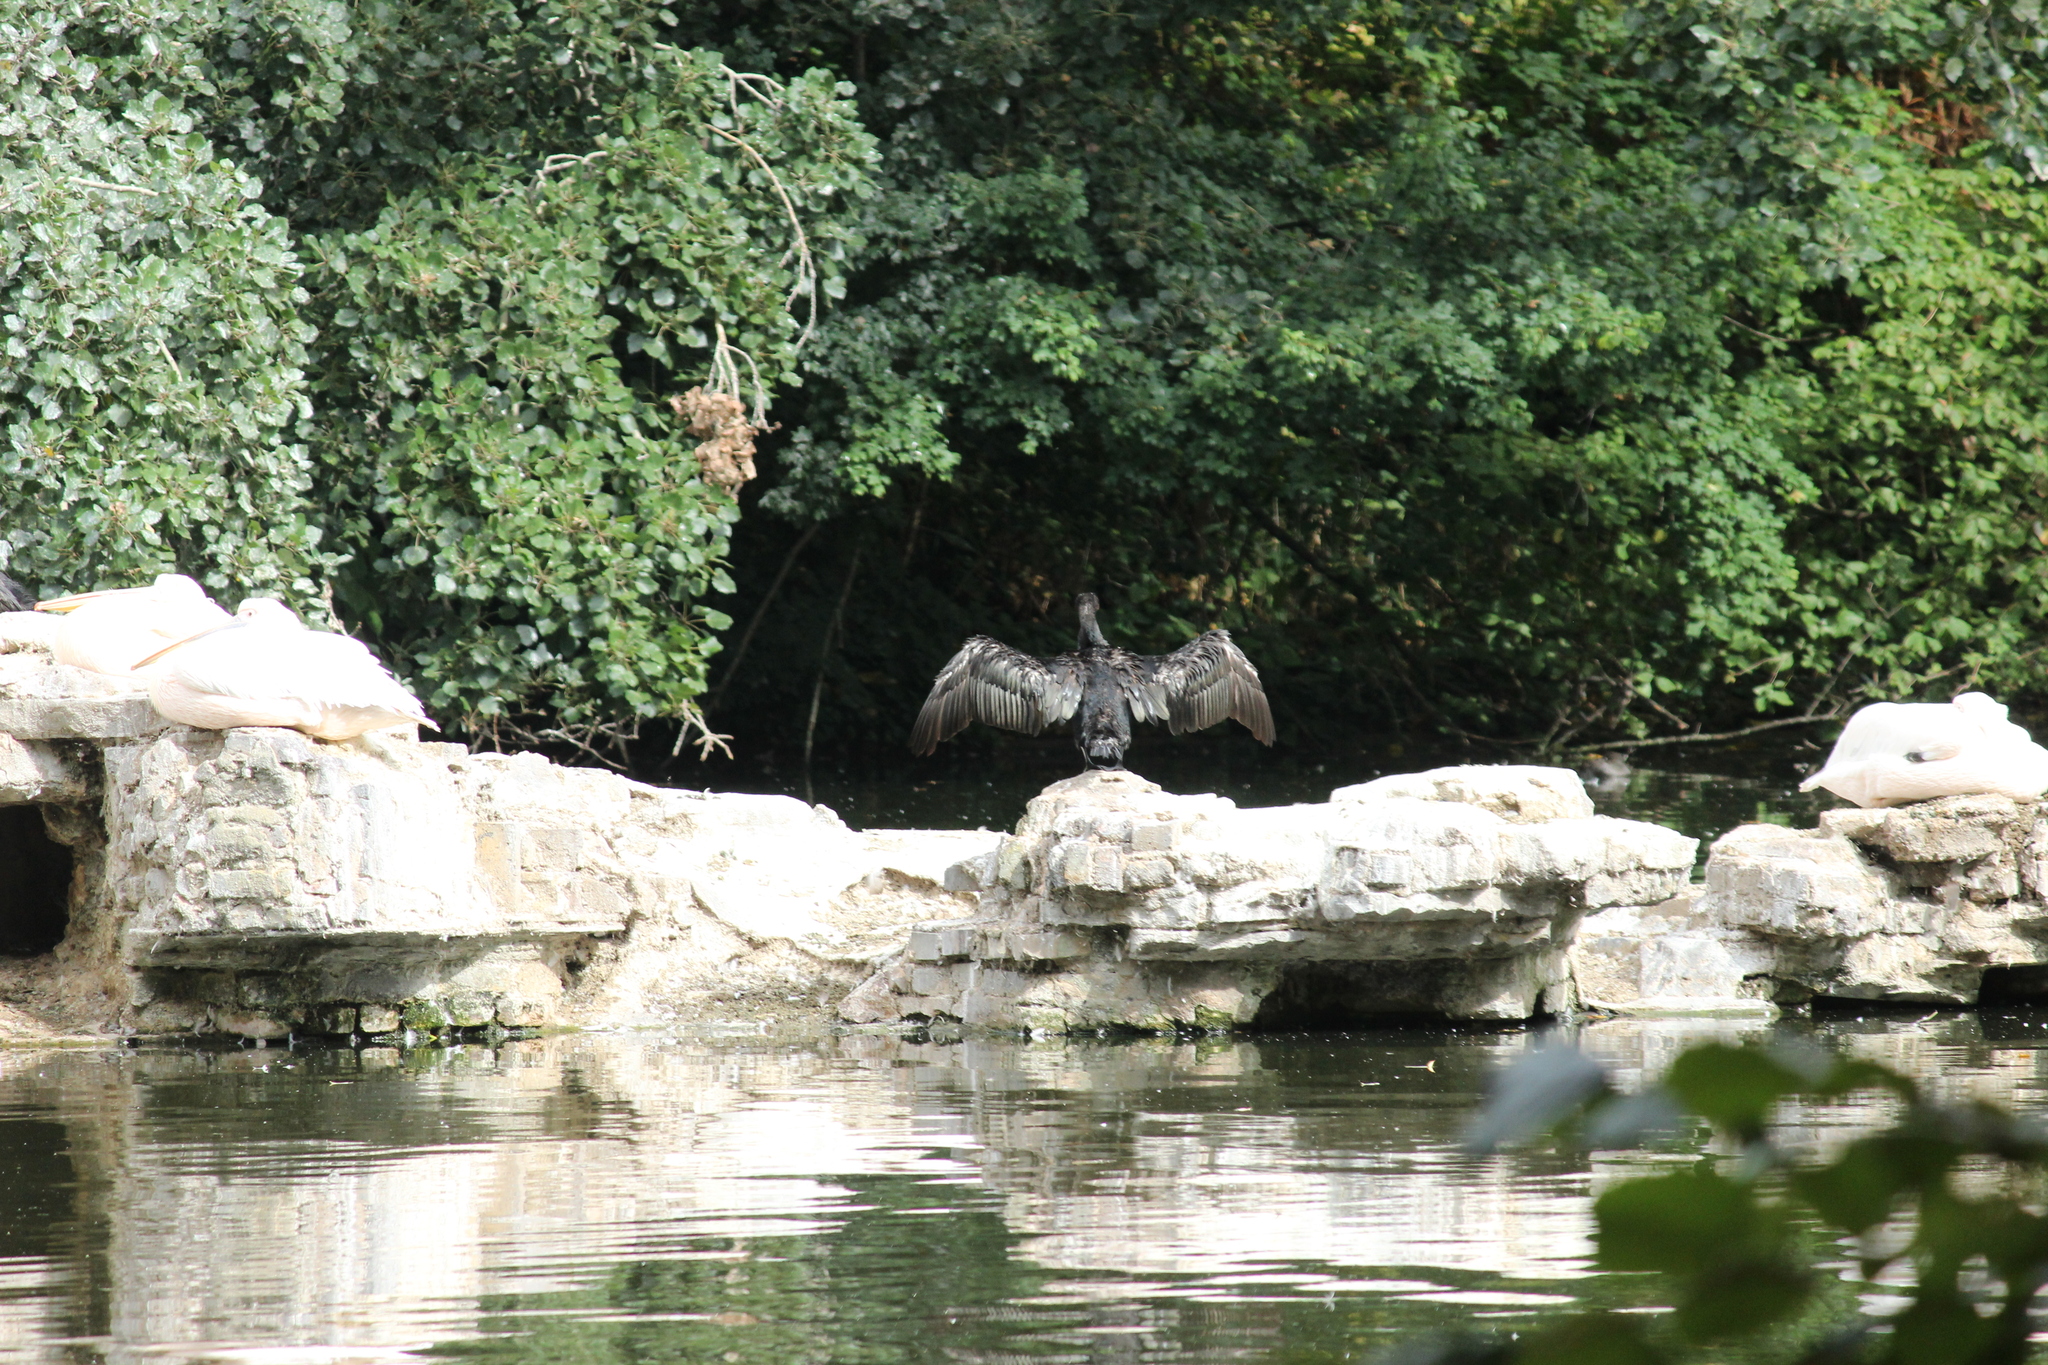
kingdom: Animalia
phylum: Chordata
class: Aves
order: Suliformes
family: Phalacrocoracidae
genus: Phalacrocorax
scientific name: Phalacrocorax carbo
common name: Great cormorant
